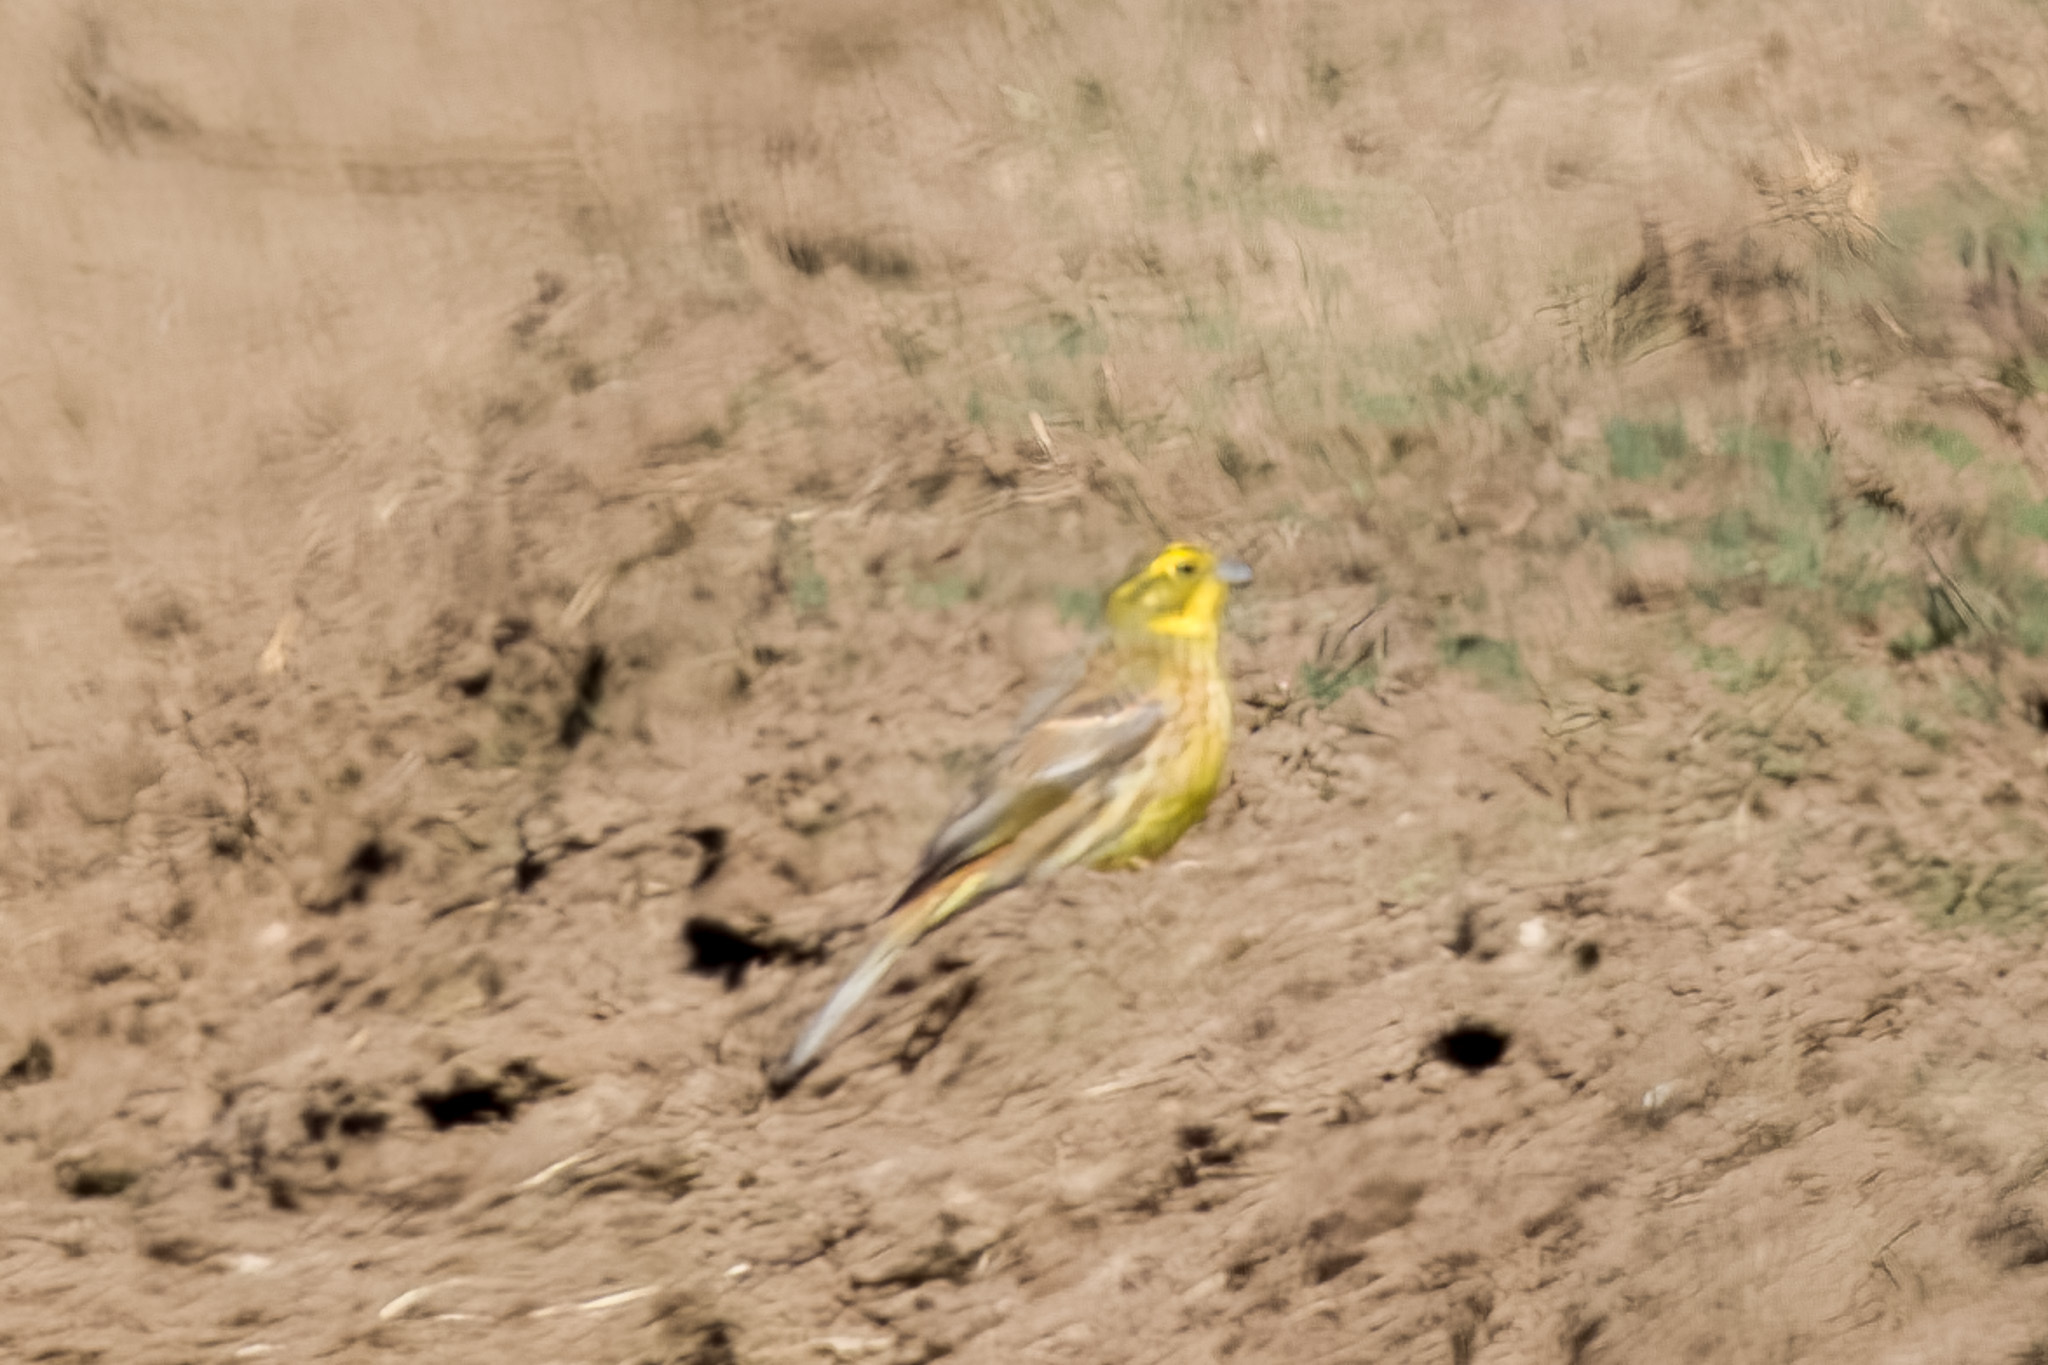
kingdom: Animalia
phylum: Chordata
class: Aves
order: Passeriformes
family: Emberizidae
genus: Emberiza
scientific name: Emberiza citrinella
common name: Yellowhammer
